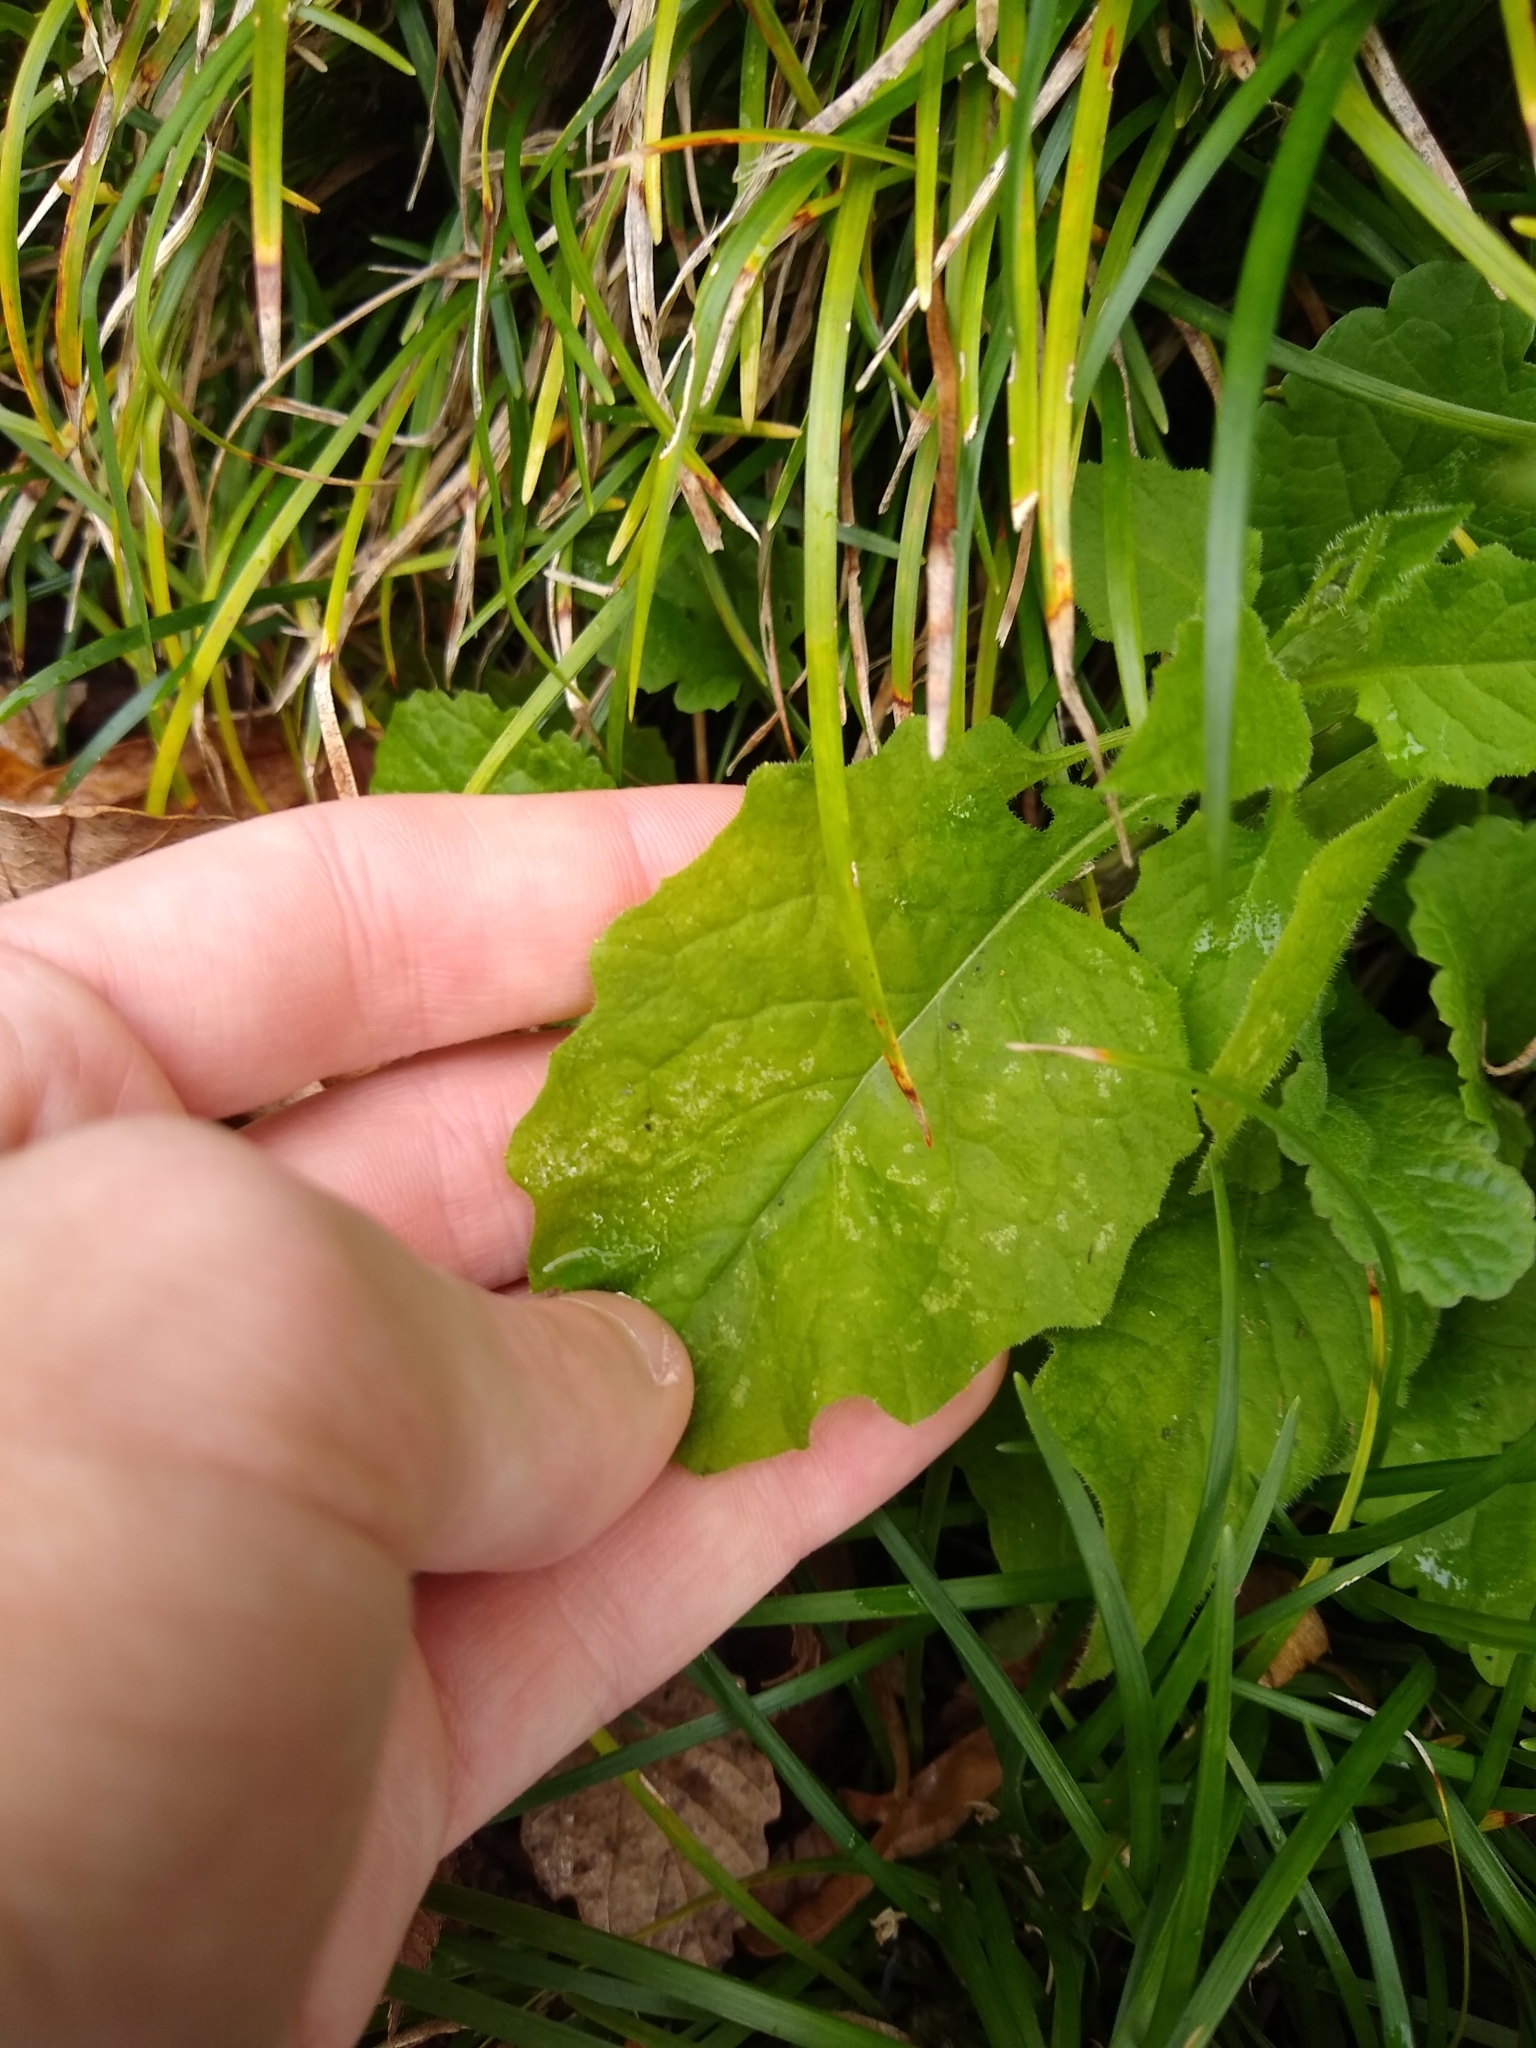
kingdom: Plantae
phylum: Tracheophyta
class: Magnoliopsida
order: Asterales
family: Asteraceae
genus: Lapsana
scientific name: Lapsana communis
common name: Nipplewort
